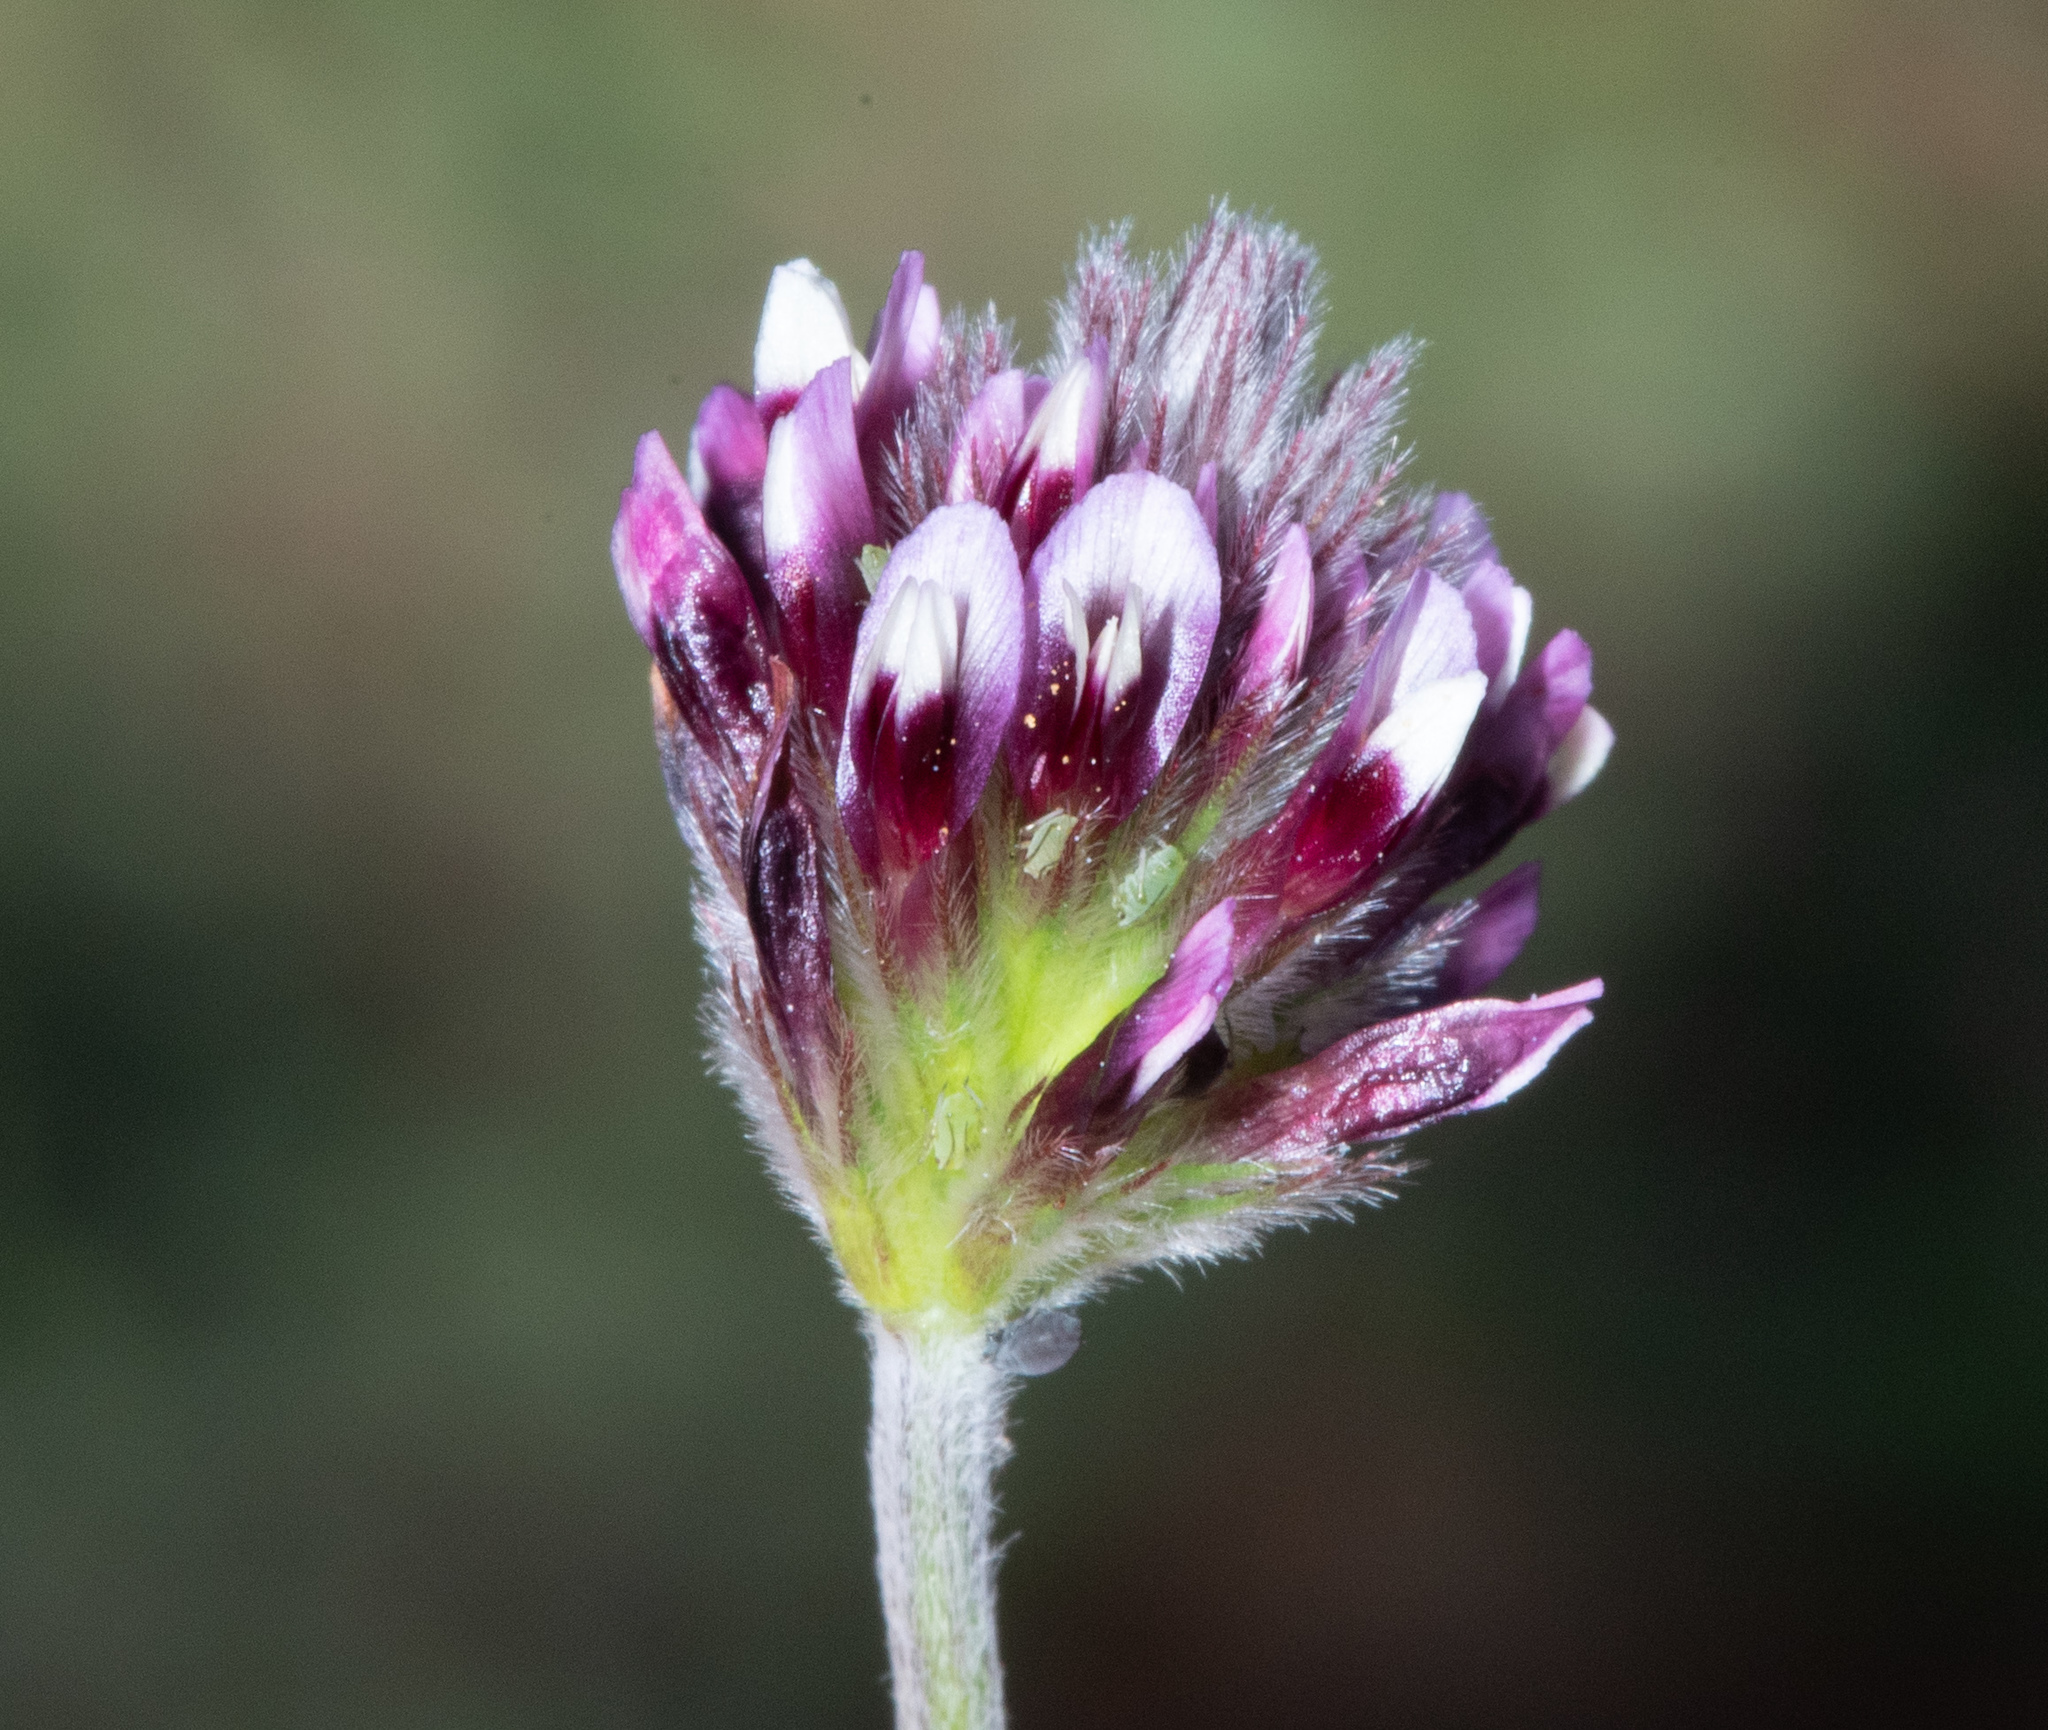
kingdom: Plantae
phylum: Tracheophyta
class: Magnoliopsida
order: Fabales
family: Fabaceae
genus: Trifolium
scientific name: Trifolium dichotomum
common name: Branched indian clover
